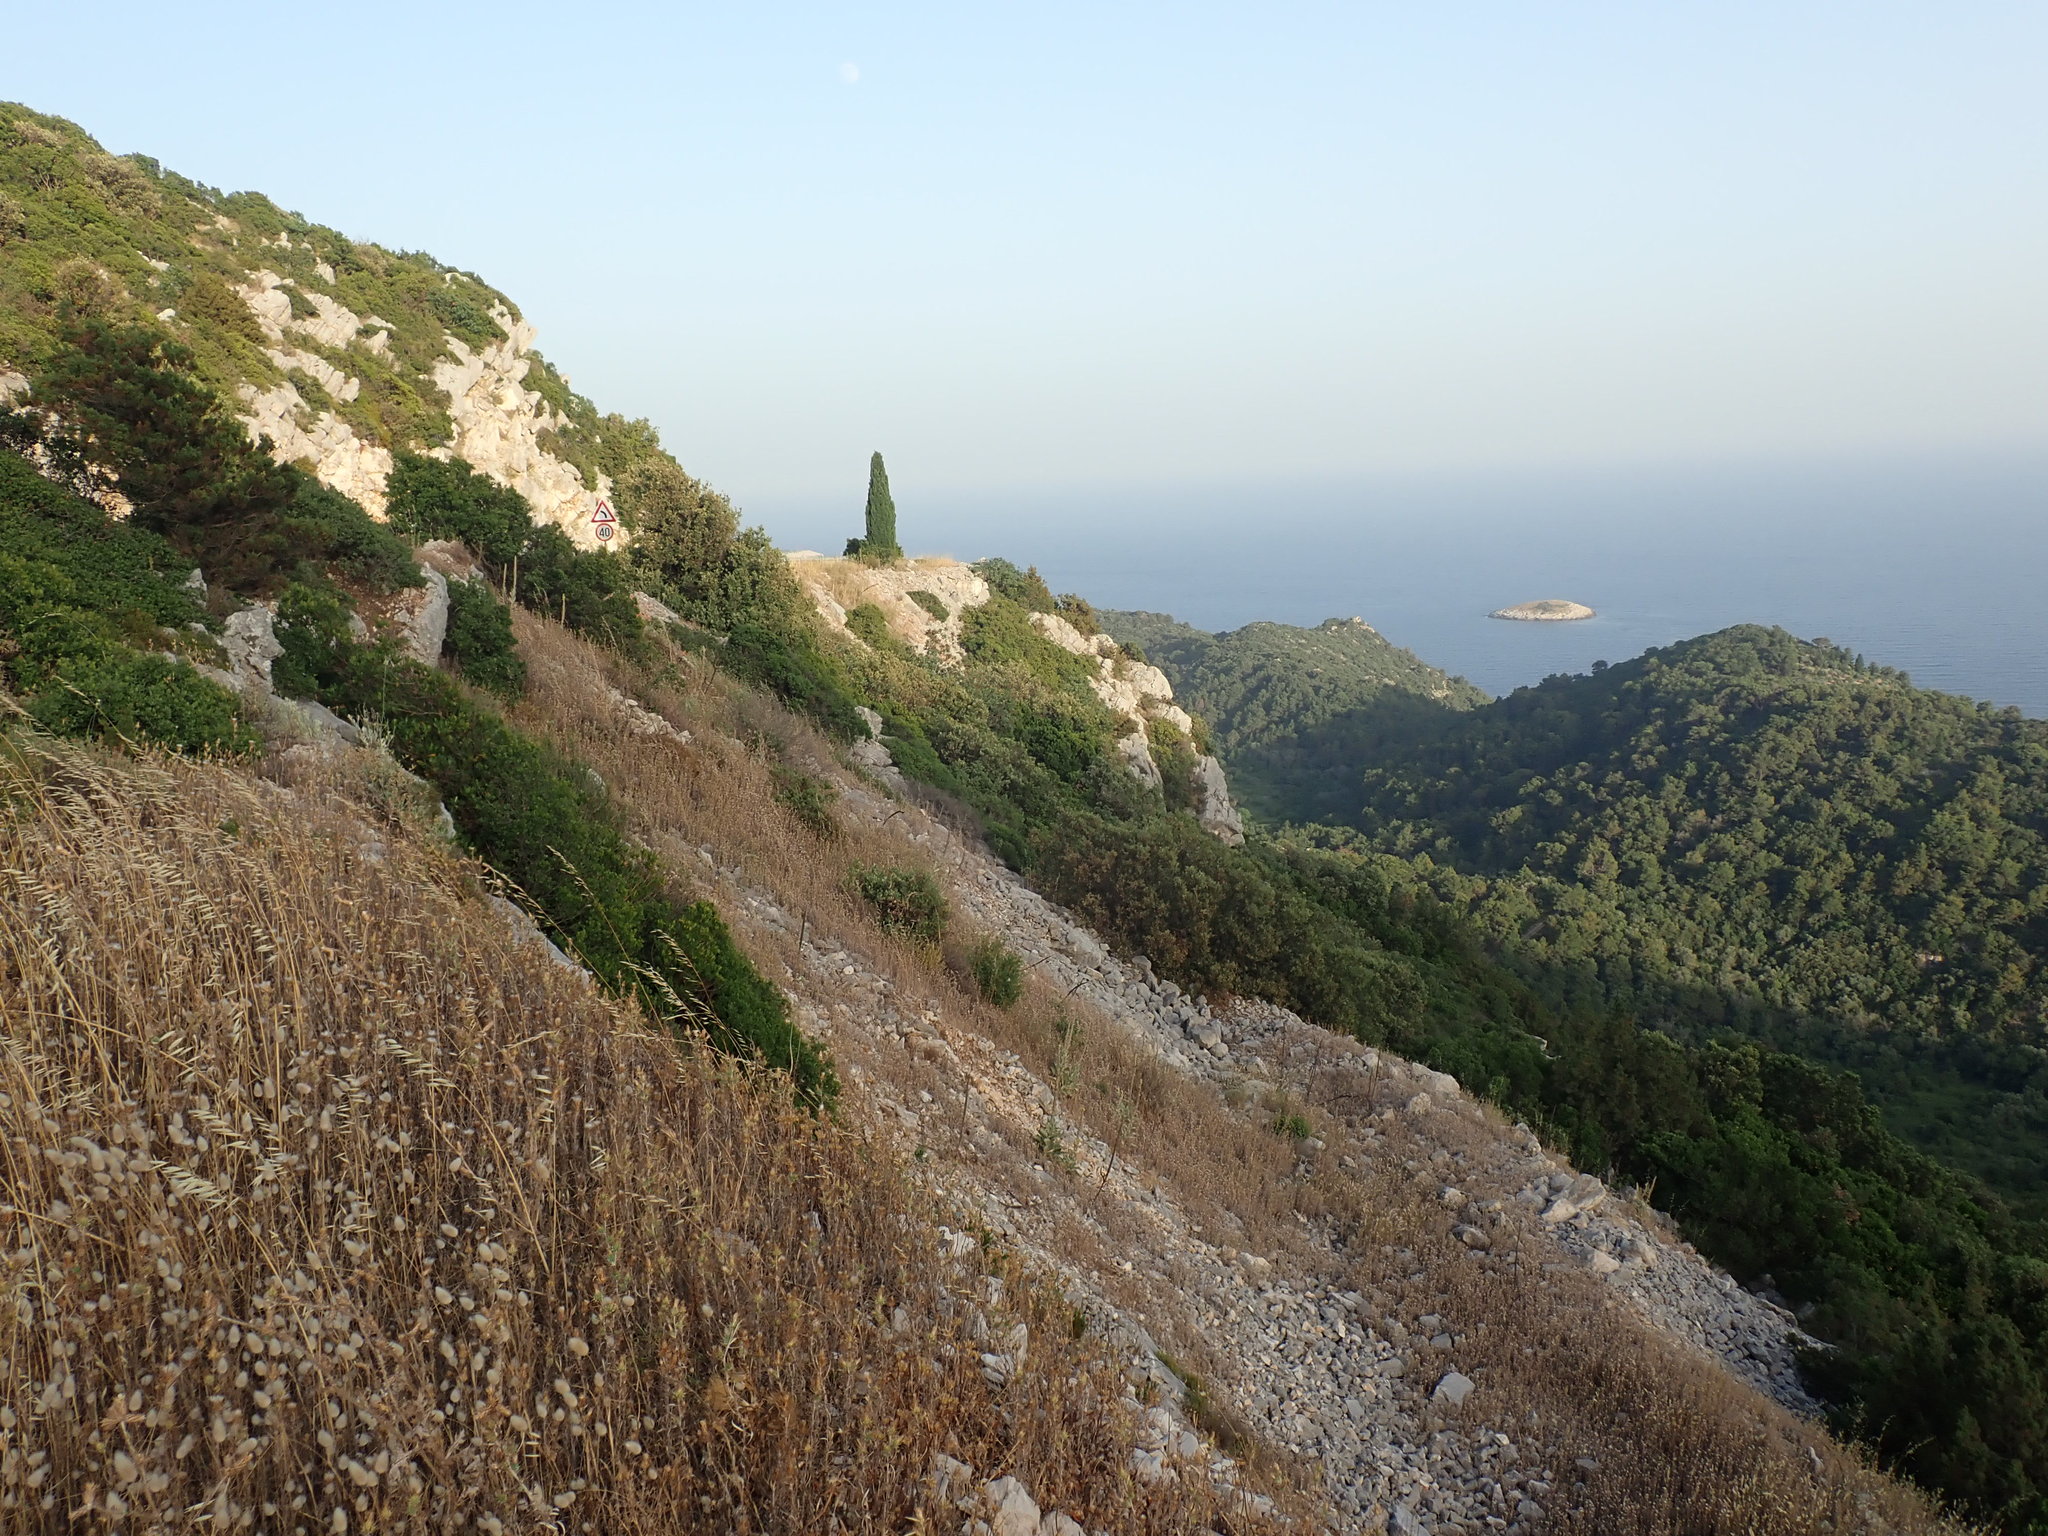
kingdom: Animalia
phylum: Arthropoda
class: Insecta
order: Orthoptera
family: Tettigoniidae
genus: Platycleis
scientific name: Platycleis intermedia
